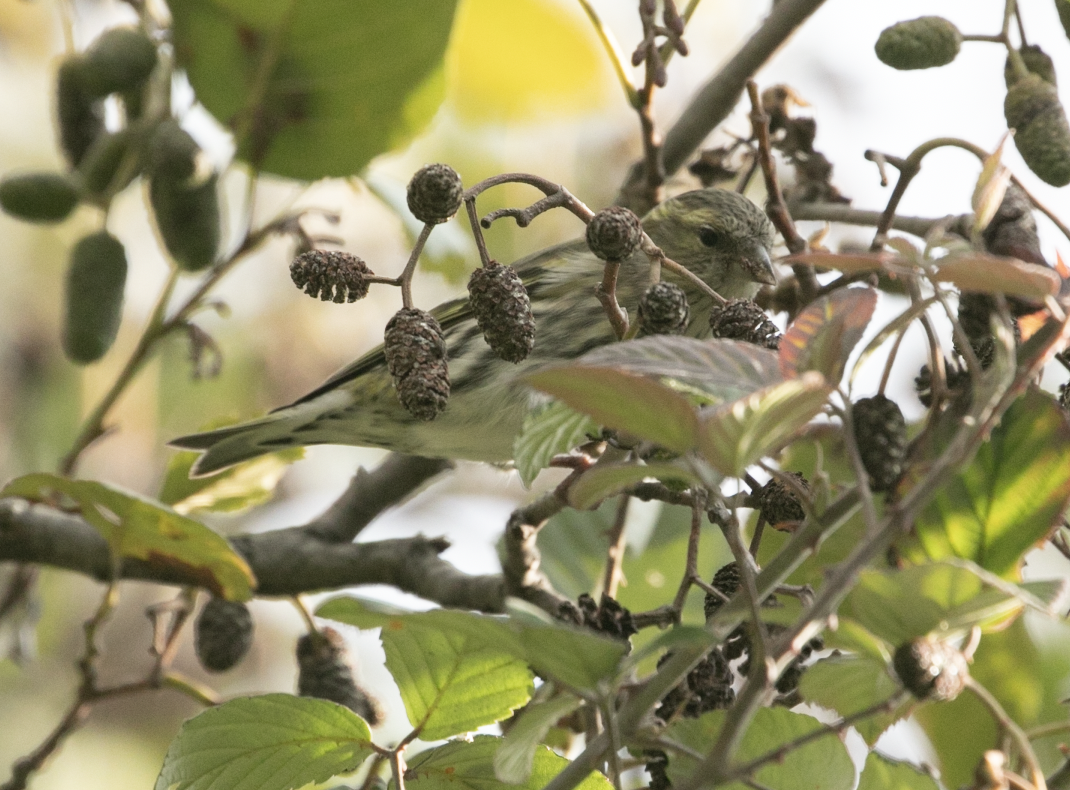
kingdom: Animalia
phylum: Chordata
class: Aves
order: Passeriformes
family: Fringillidae
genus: Spinus
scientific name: Spinus spinus
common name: Eurasian siskin
